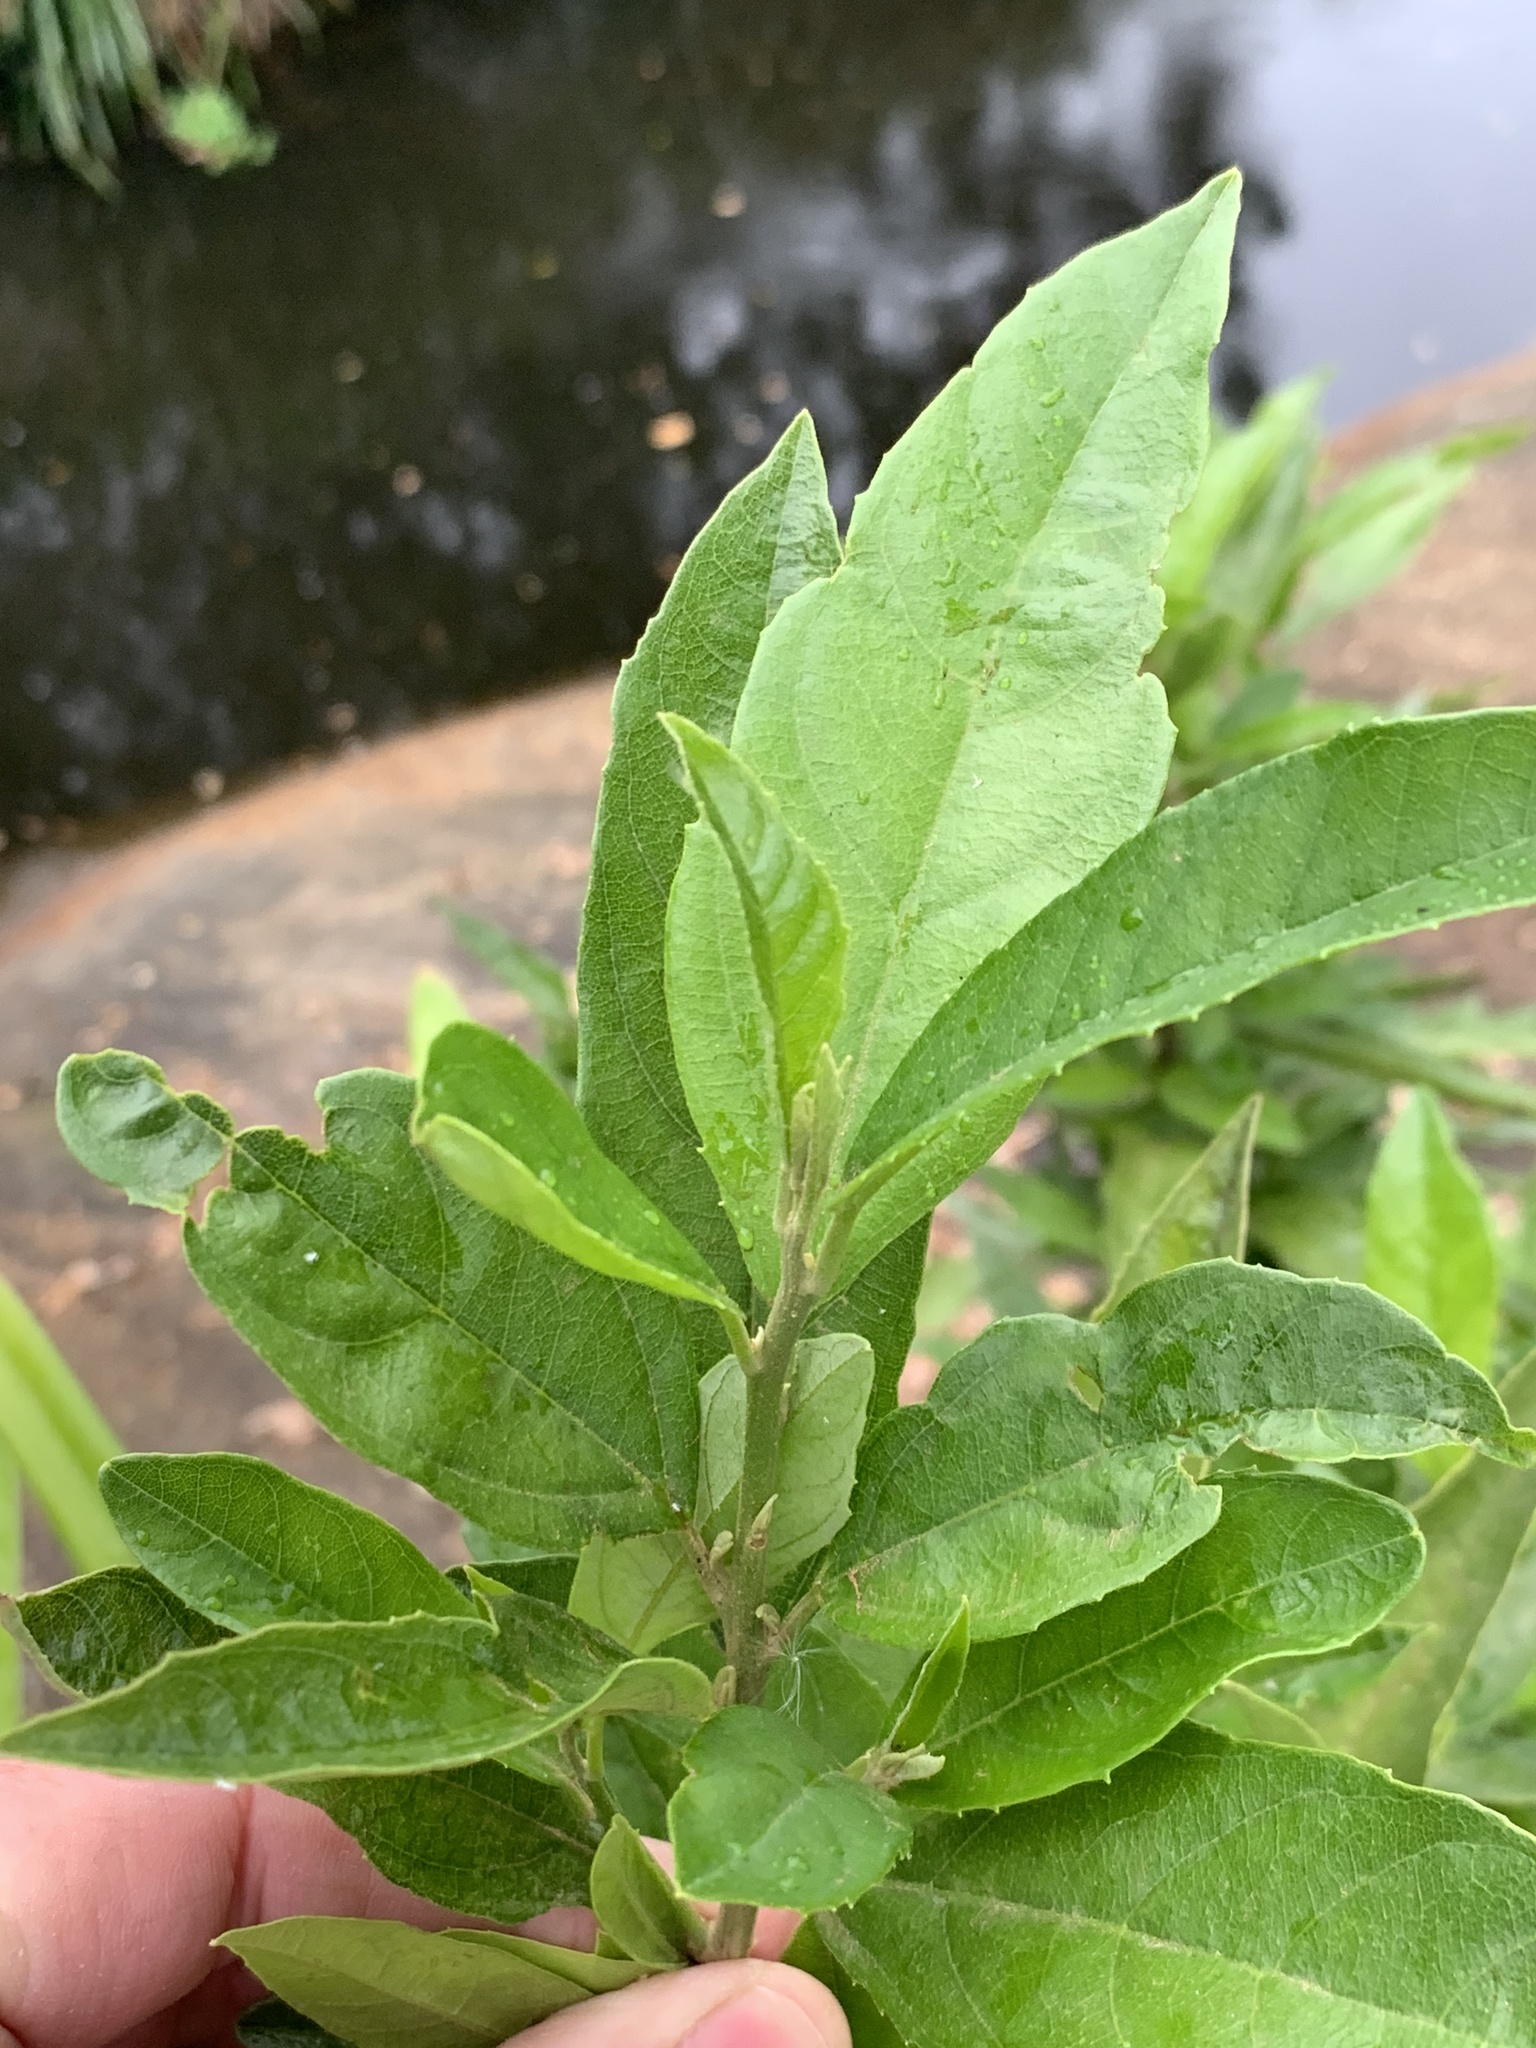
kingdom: Plantae
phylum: Tracheophyta
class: Magnoliopsida
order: Malpighiales
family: Achariaceae
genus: Kiggelaria
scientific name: Kiggelaria africana
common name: Wild peach
